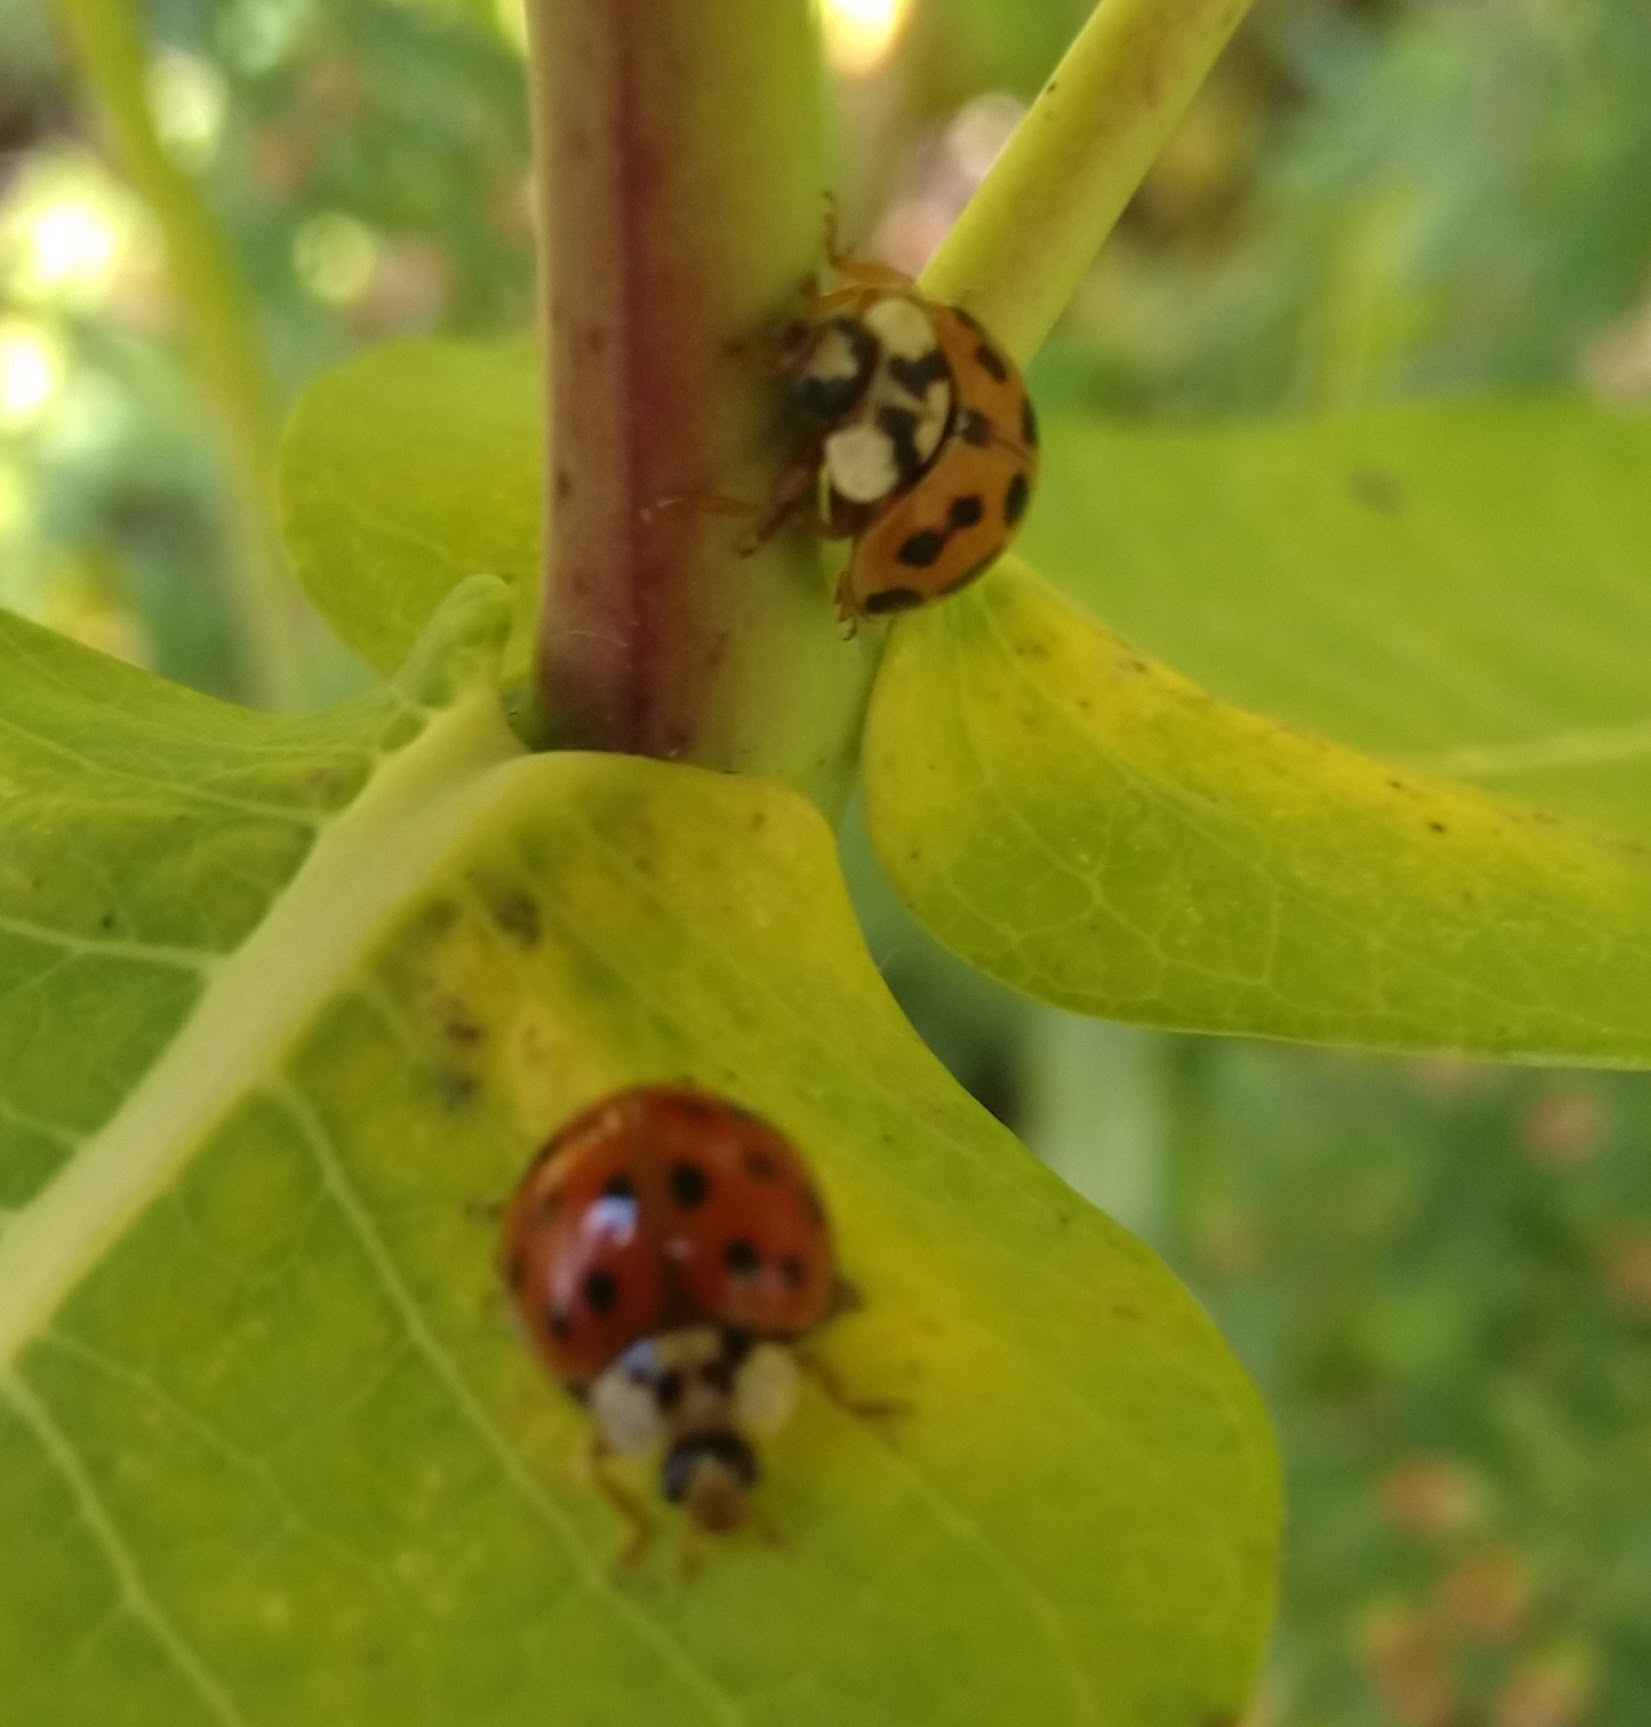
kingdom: Animalia
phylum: Arthropoda
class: Insecta
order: Coleoptera
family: Coccinellidae
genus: Harmonia
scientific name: Harmonia axyridis
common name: Harlequin ladybird
